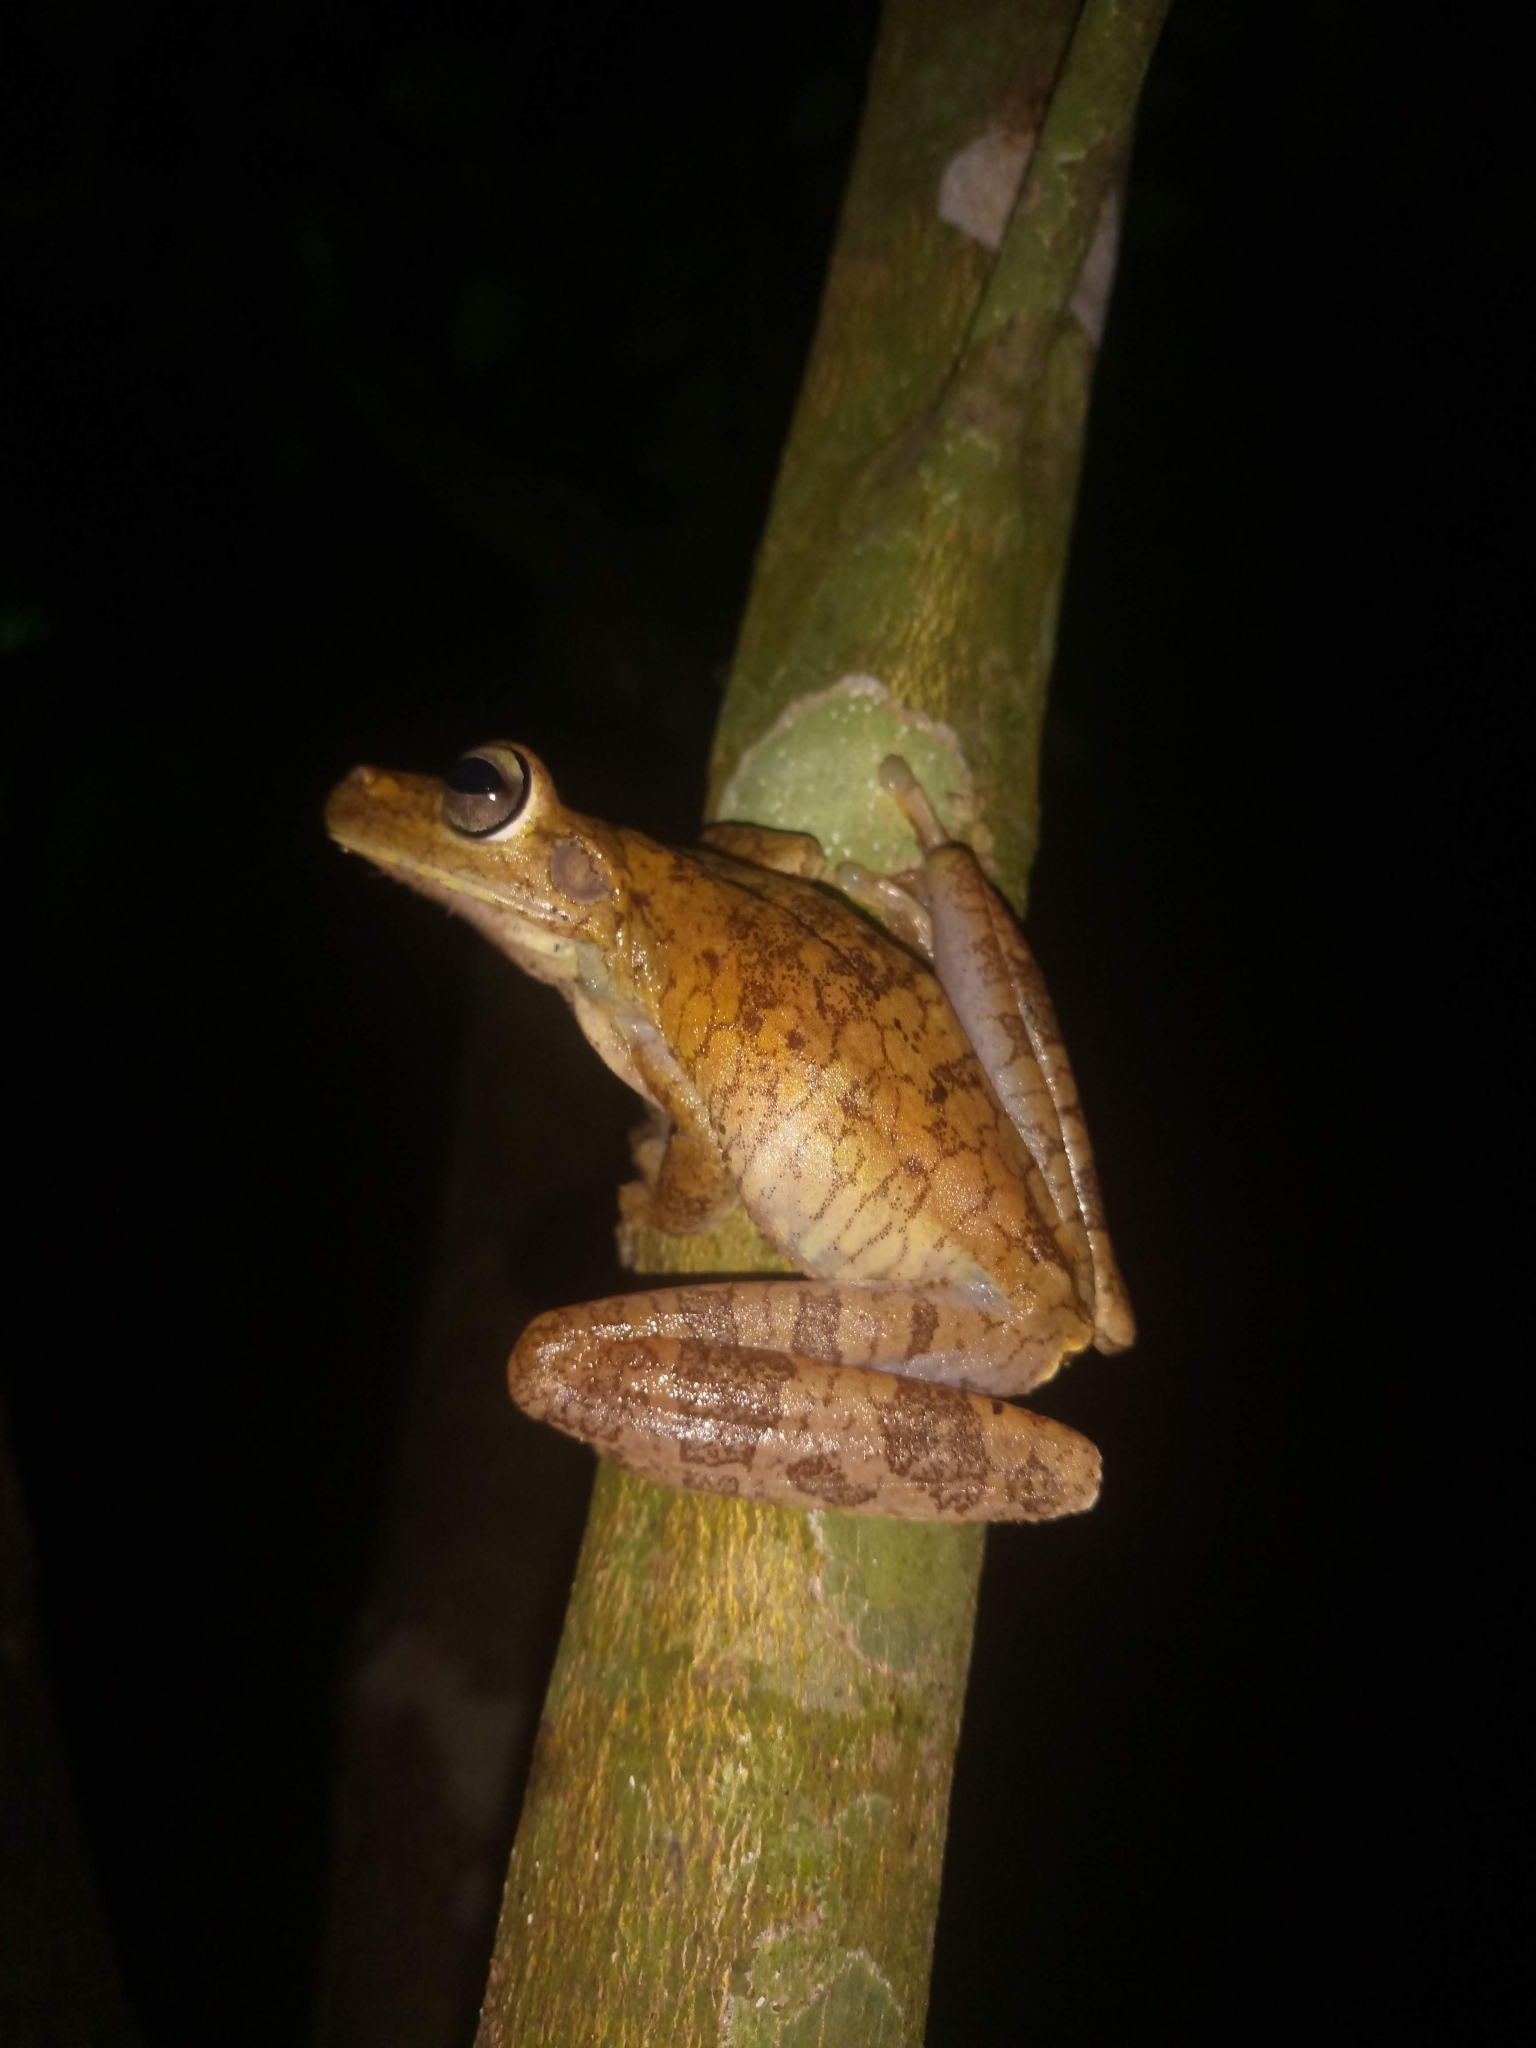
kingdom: Animalia
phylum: Chordata
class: Amphibia
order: Anura
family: Hylidae
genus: Boana
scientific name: Boana rosenbergi
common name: Rosenberg´s gladiator treefrog
